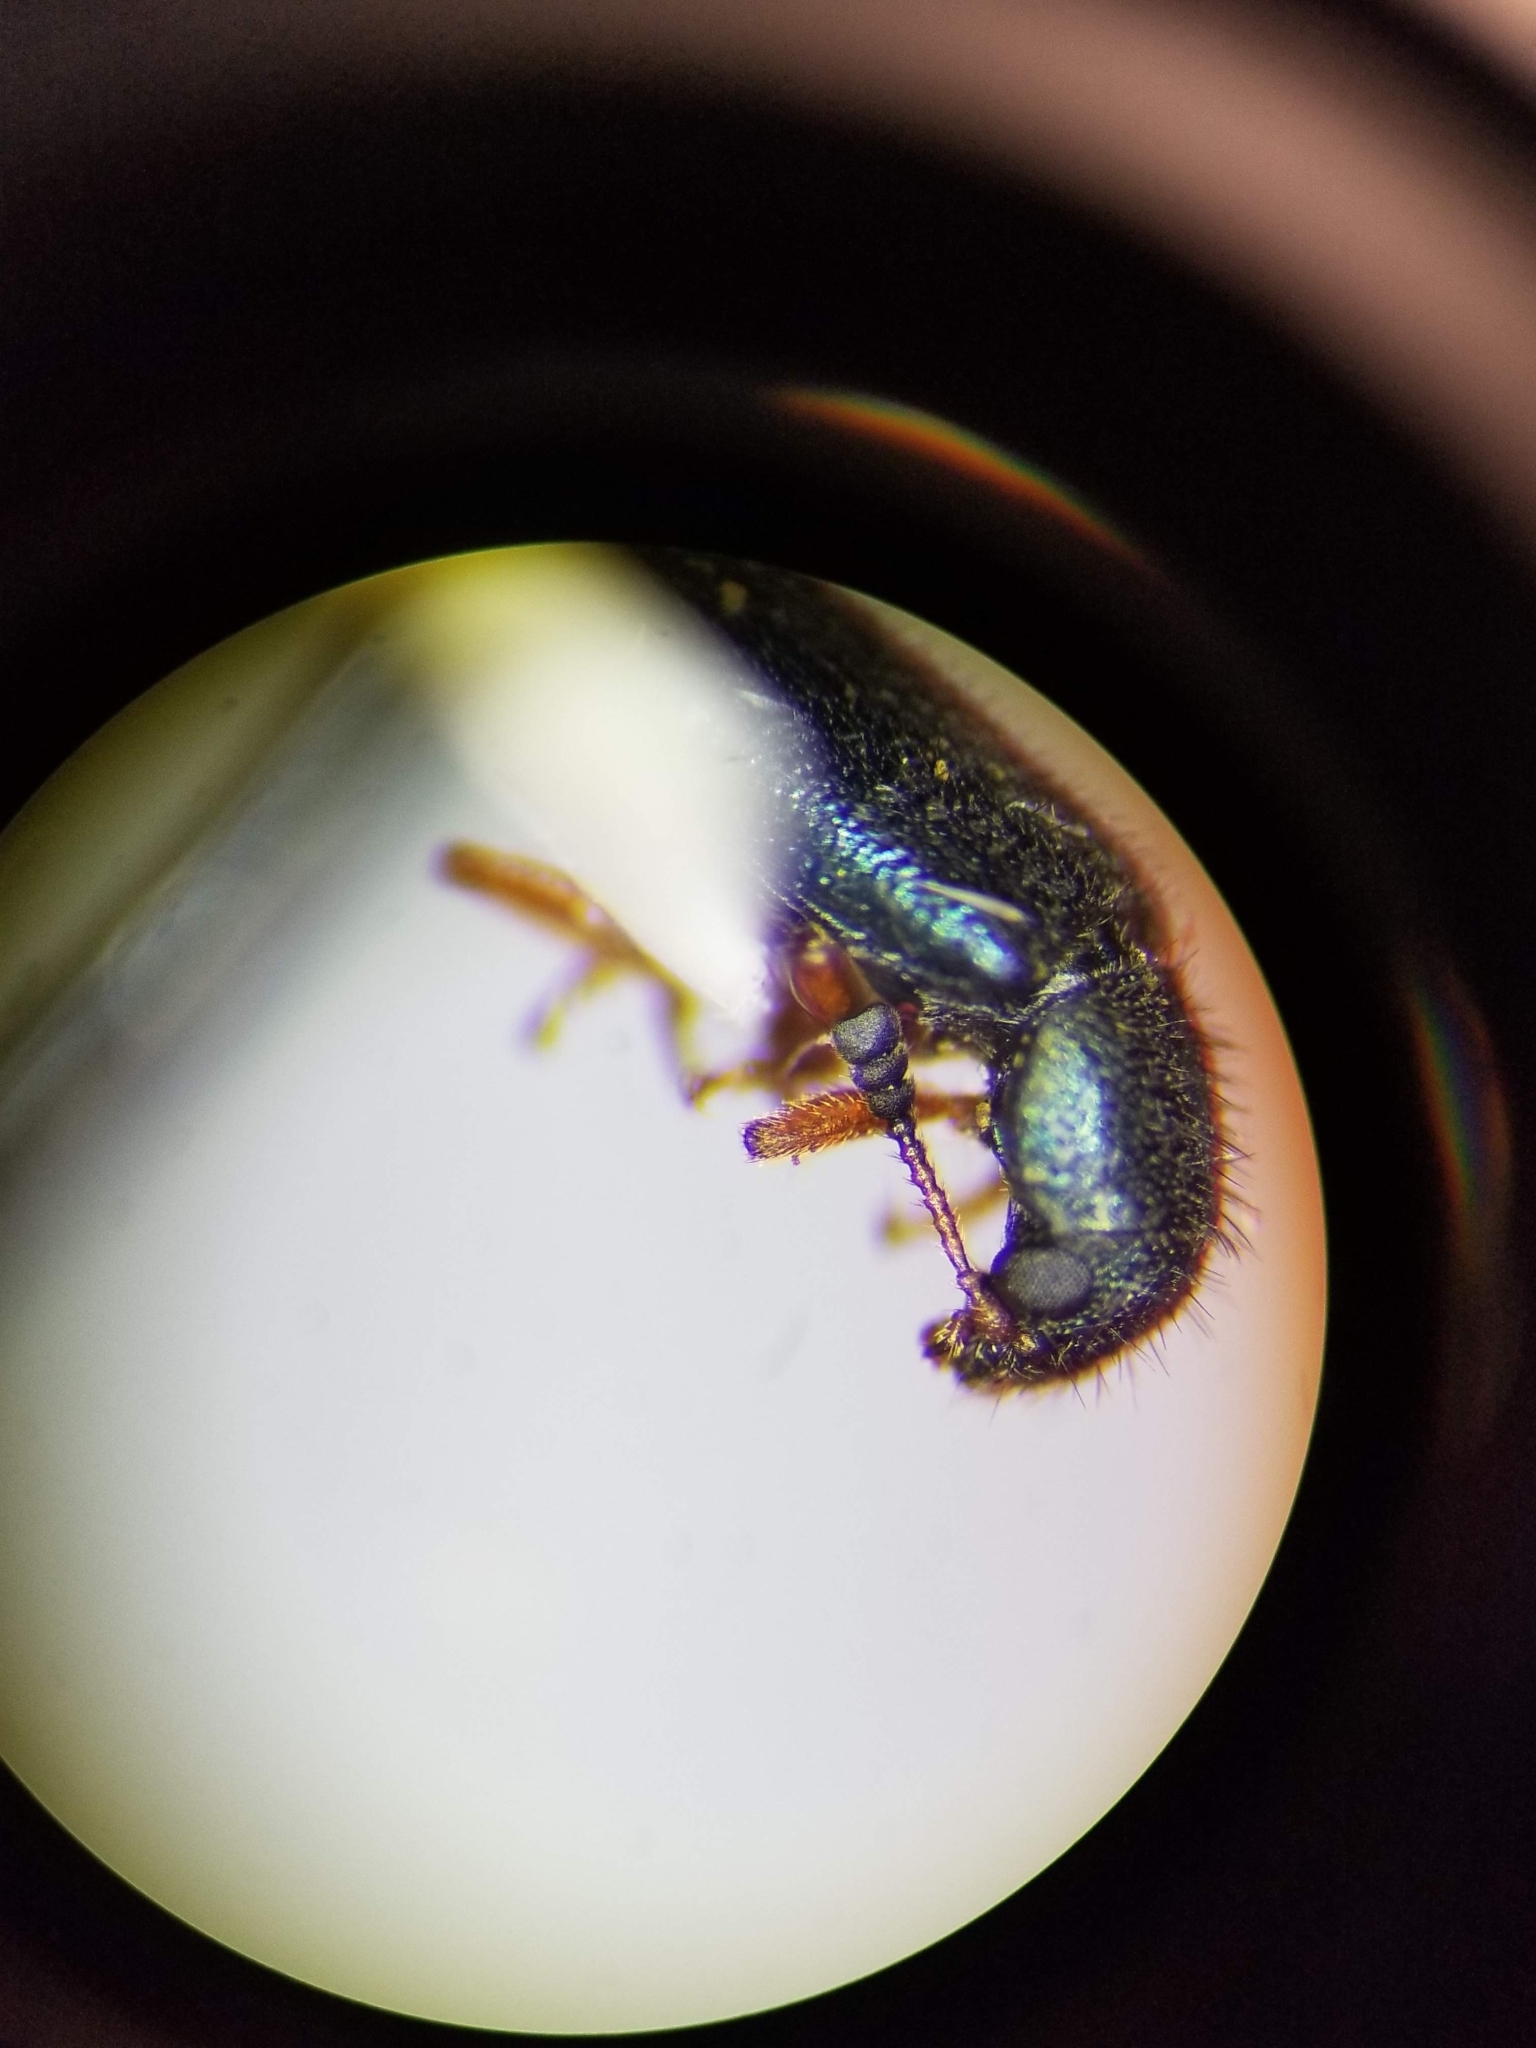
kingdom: Animalia
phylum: Arthropoda
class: Insecta
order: Coleoptera
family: Cleridae
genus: Necrobia
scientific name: Necrobia rufipes
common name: Red-legged ham beetle
